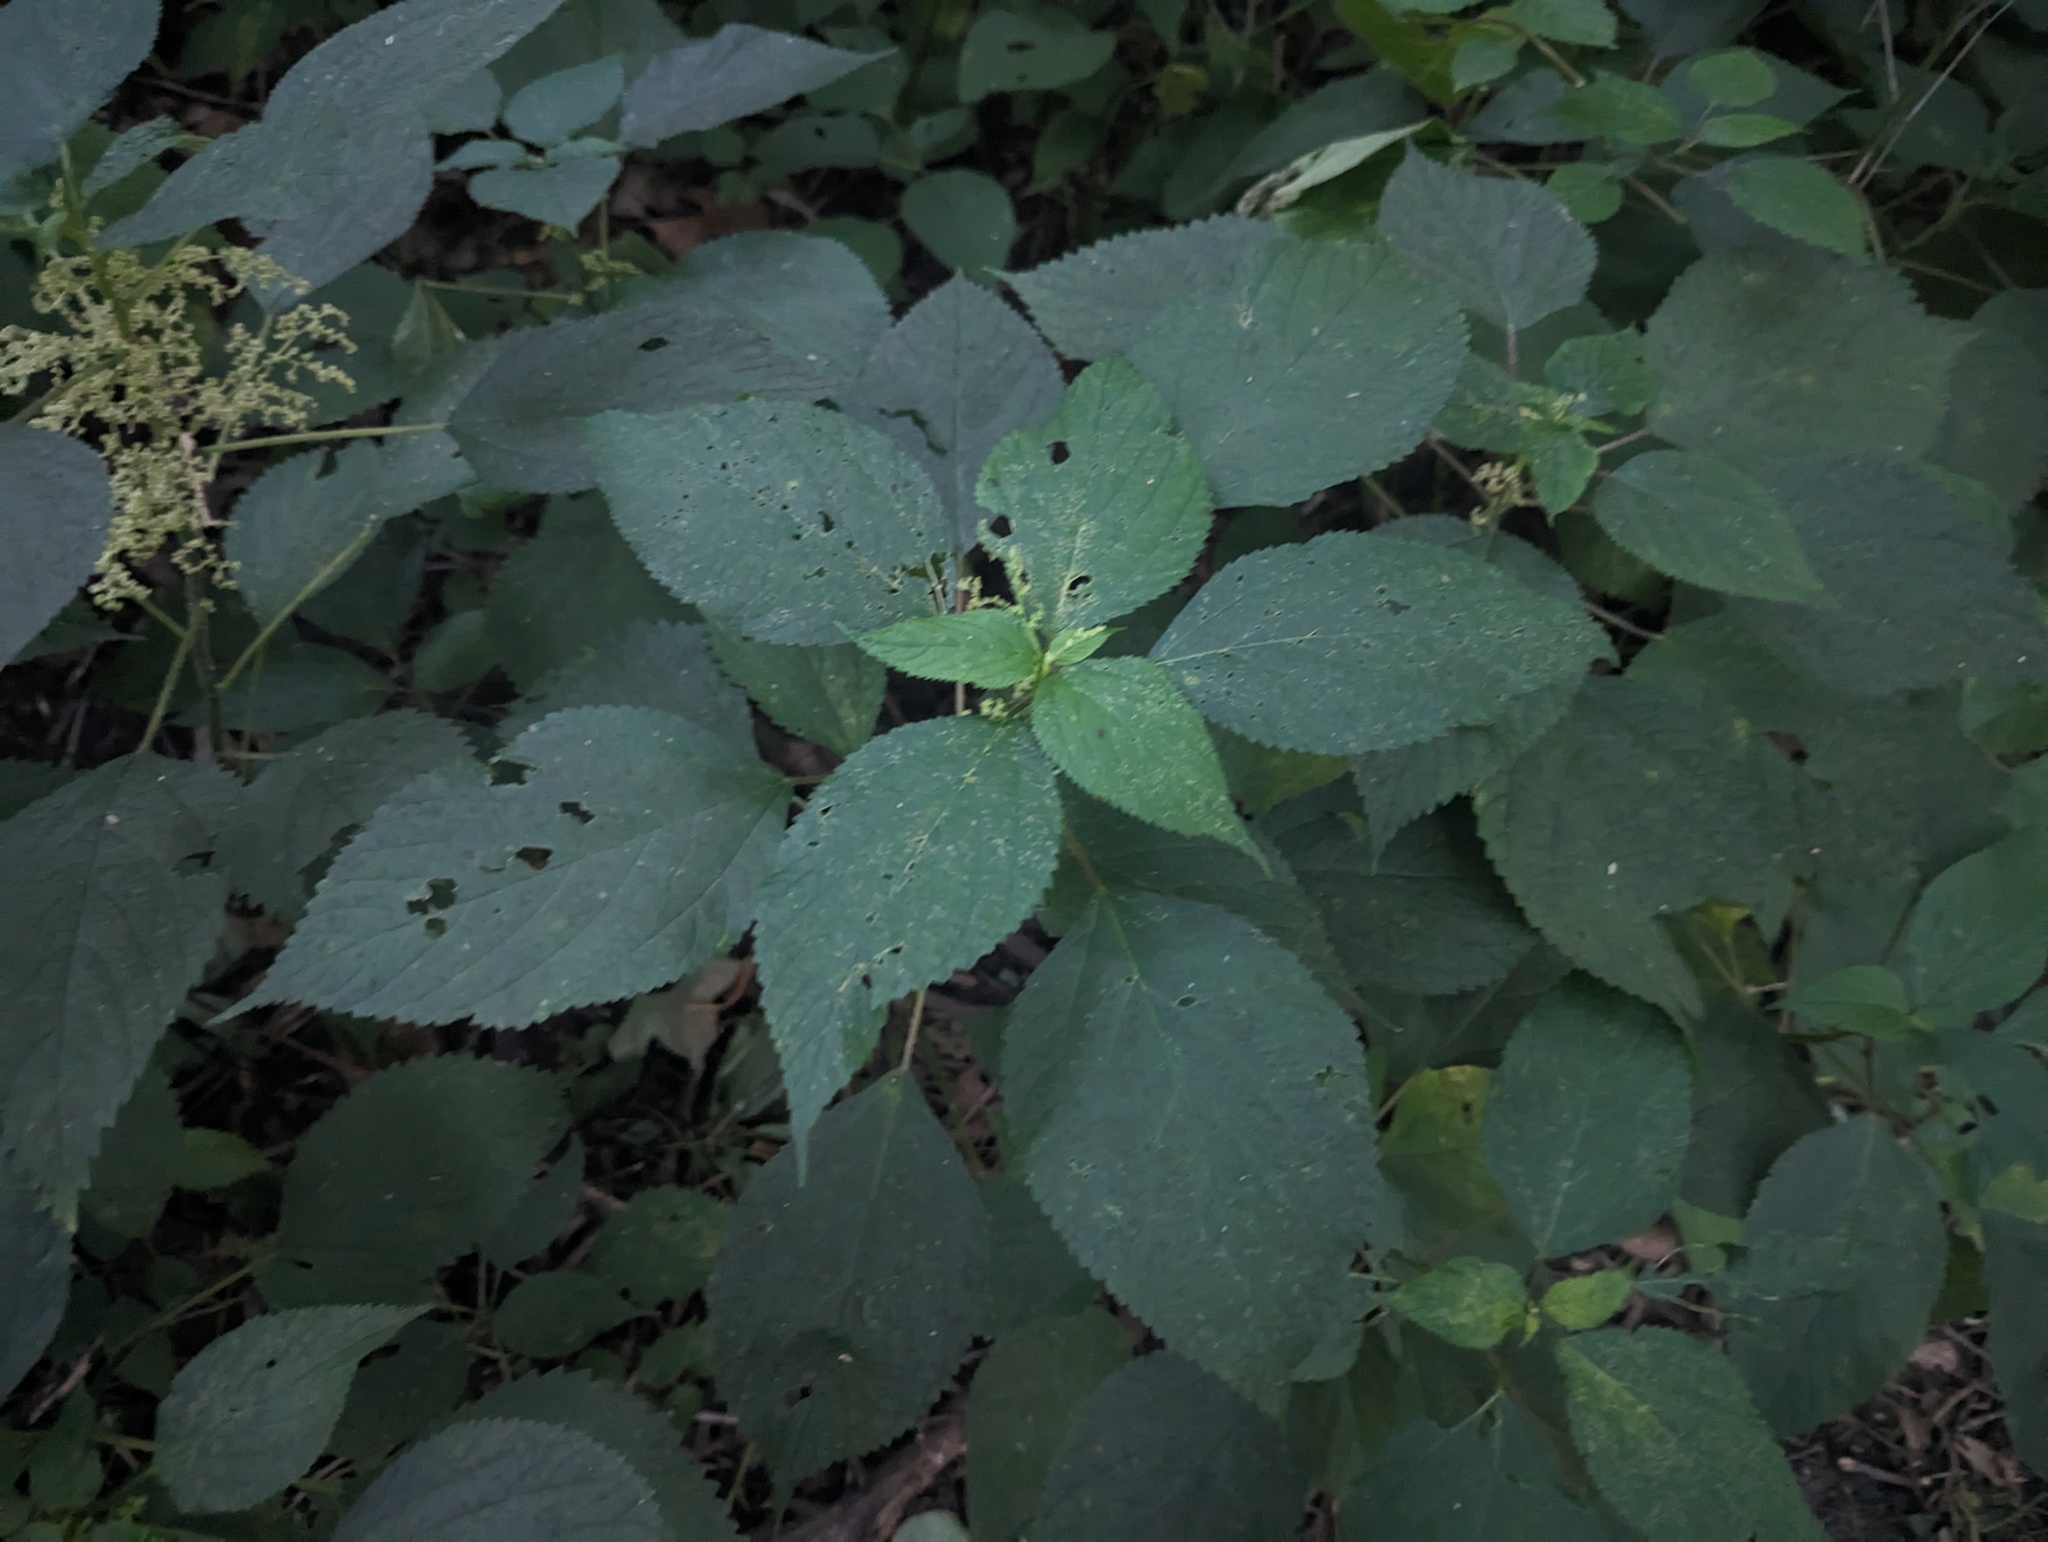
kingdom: Plantae
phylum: Tracheophyta
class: Magnoliopsida
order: Rosales
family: Urticaceae
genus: Laportea
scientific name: Laportea canadensis
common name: Canada nettle
